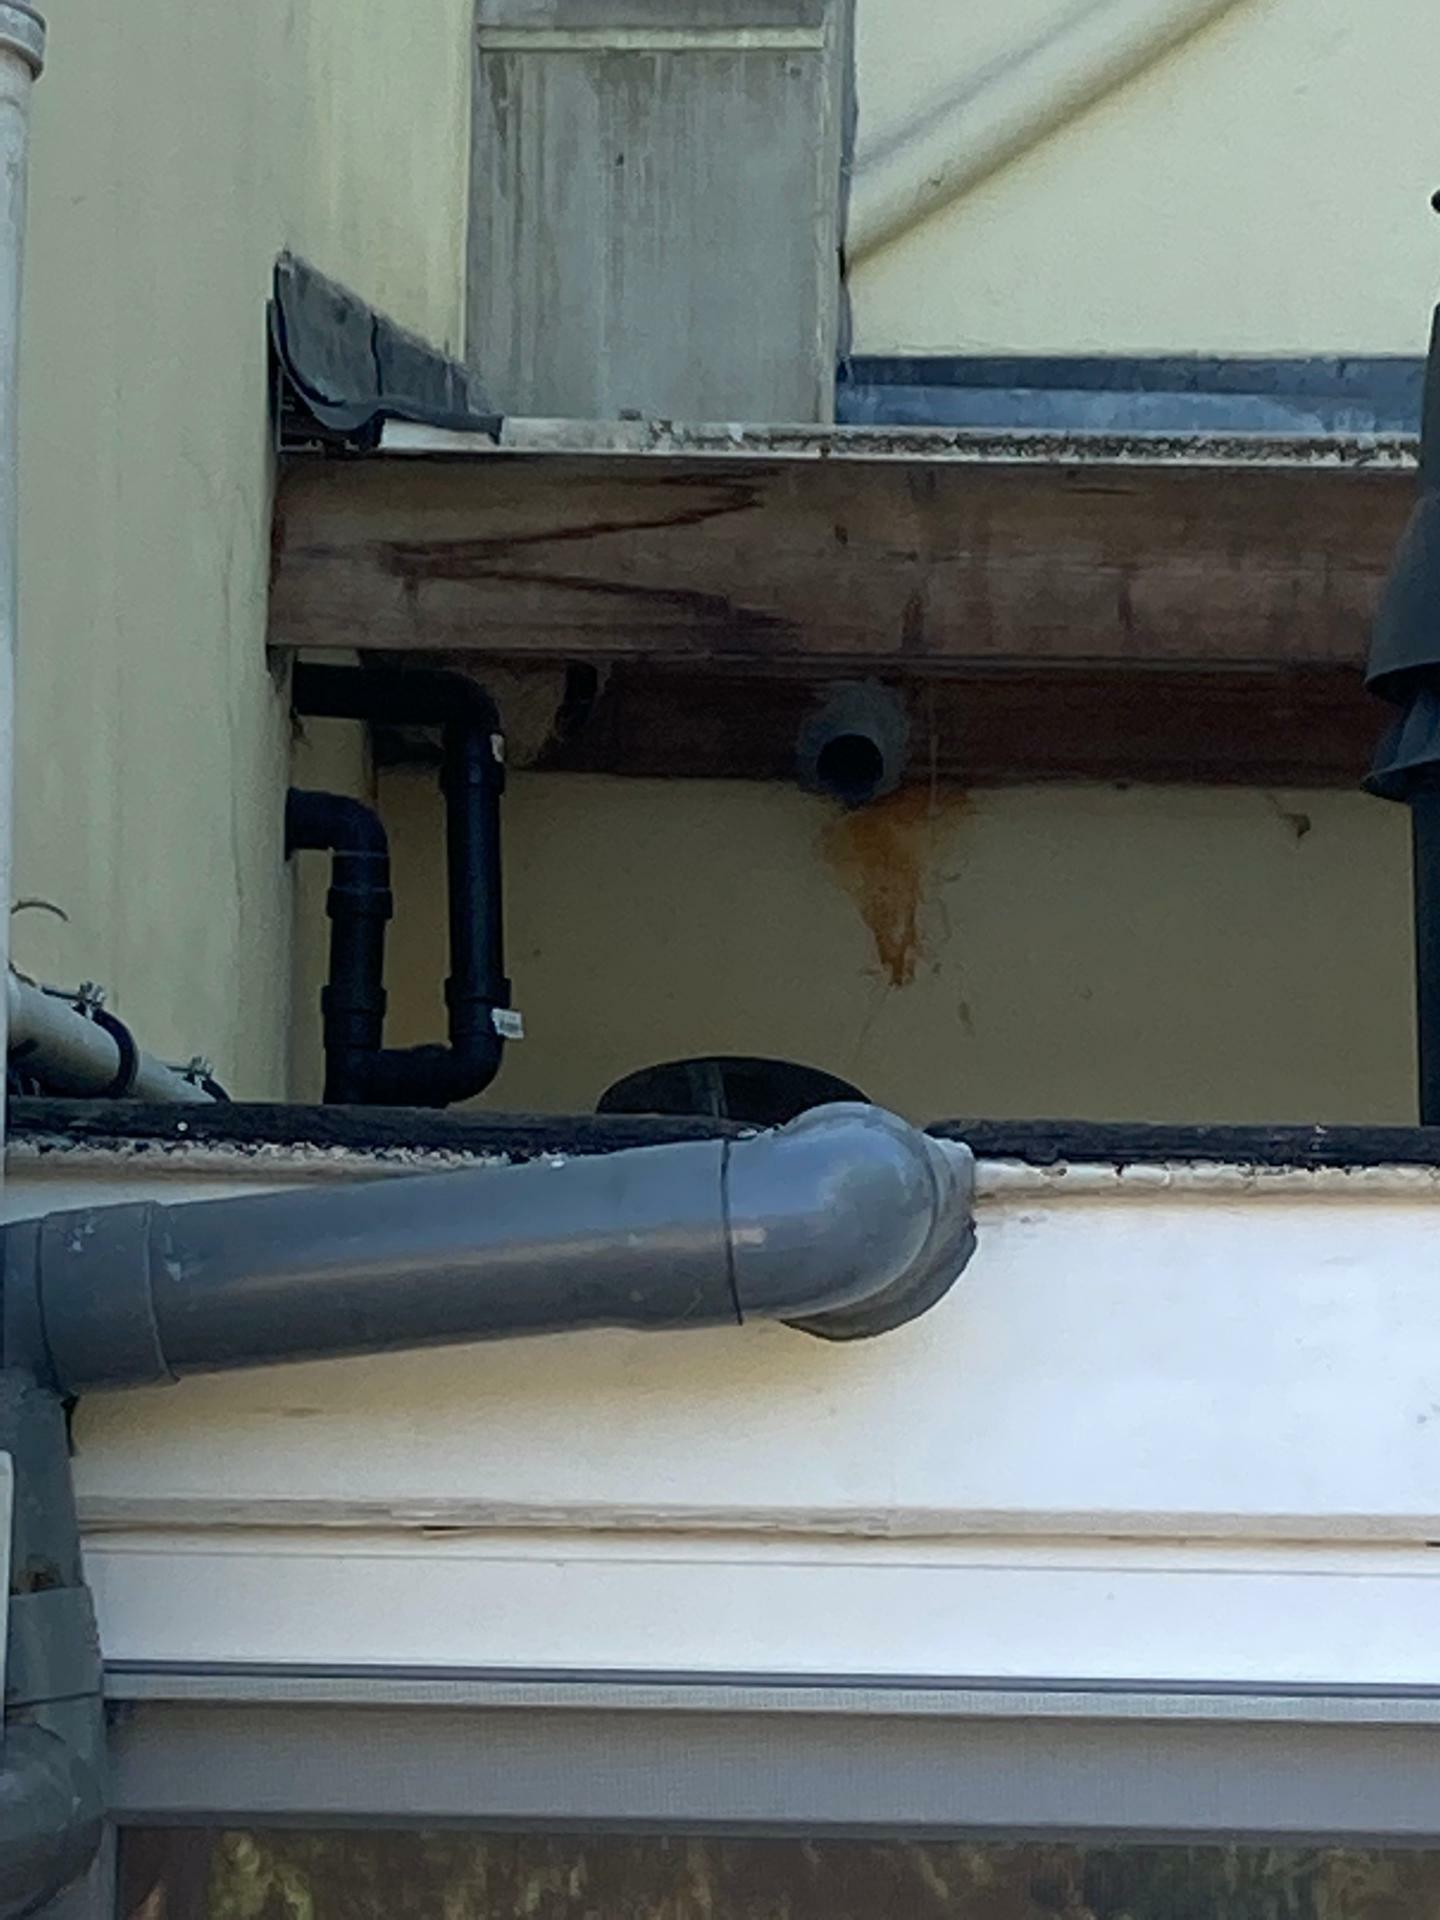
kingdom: Animalia
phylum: Arthropoda
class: Insecta
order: Hymenoptera
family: Vespidae
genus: Vespa
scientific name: Vespa velutina
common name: Asian hornet
